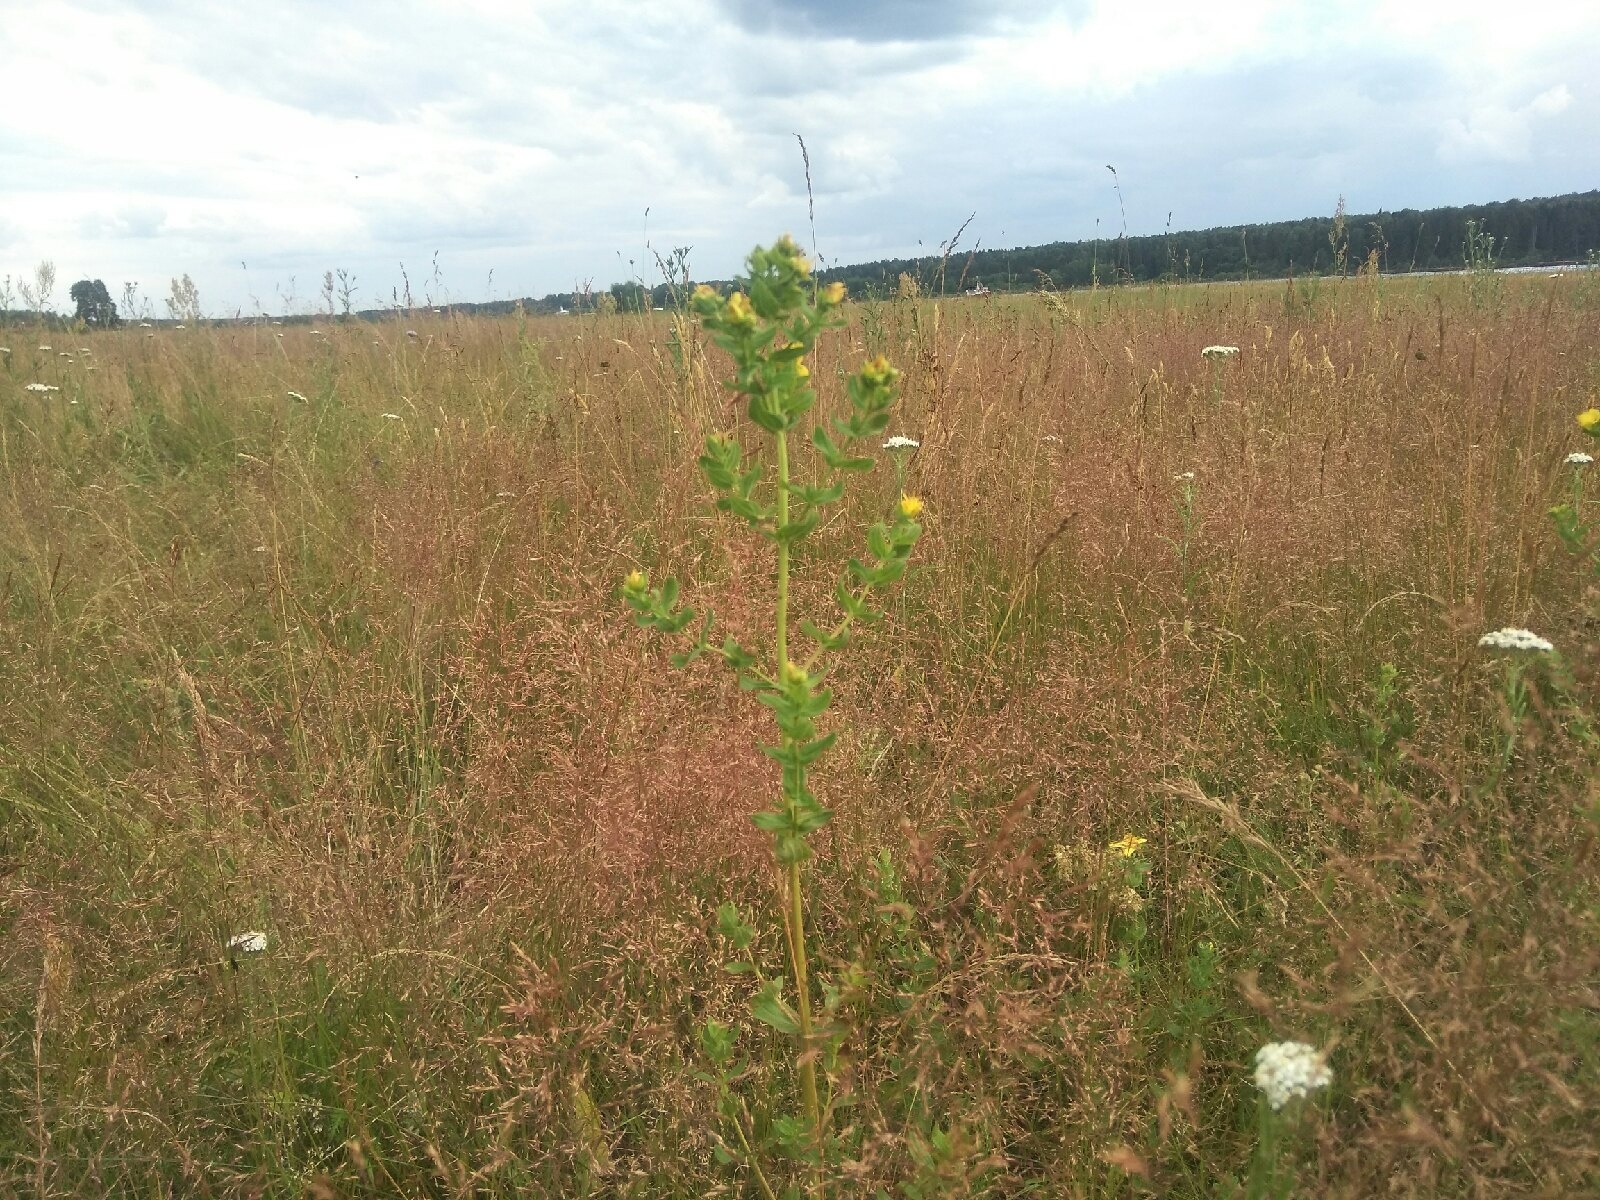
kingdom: Plantae
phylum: Tracheophyta
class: Magnoliopsida
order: Malpighiales
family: Hypericaceae
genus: Hypericum
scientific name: Hypericum perforatum
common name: Common st. johnswort
